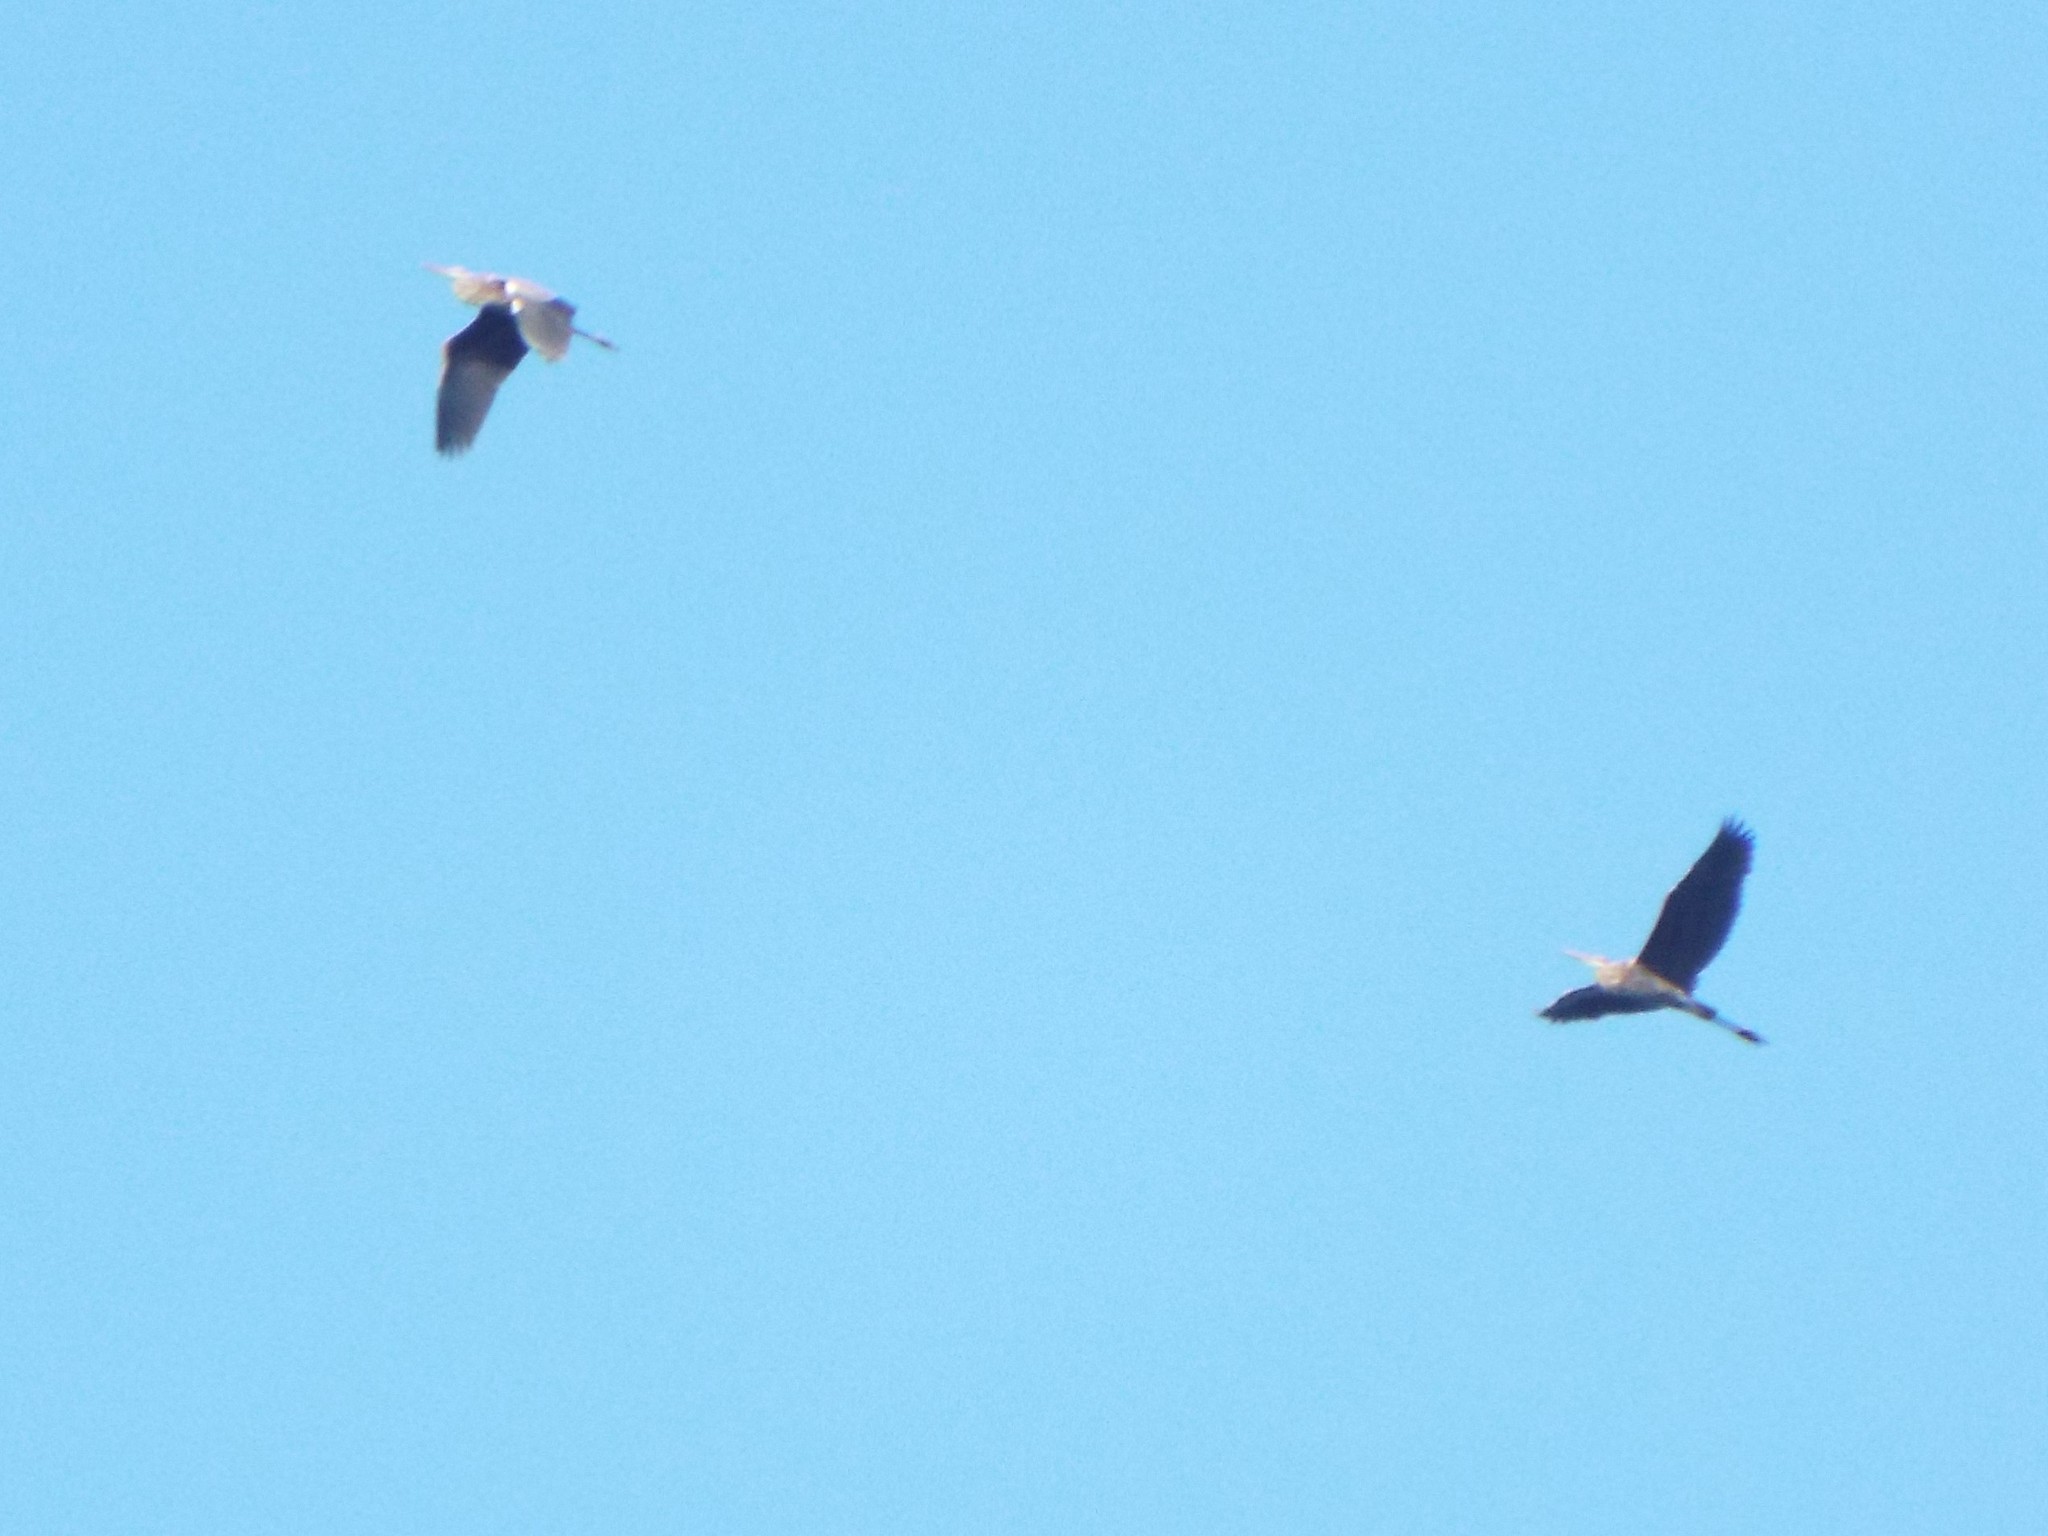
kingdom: Animalia
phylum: Chordata
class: Aves
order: Pelecaniformes
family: Ardeidae
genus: Ardea
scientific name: Ardea herodias
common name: Great blue heron
